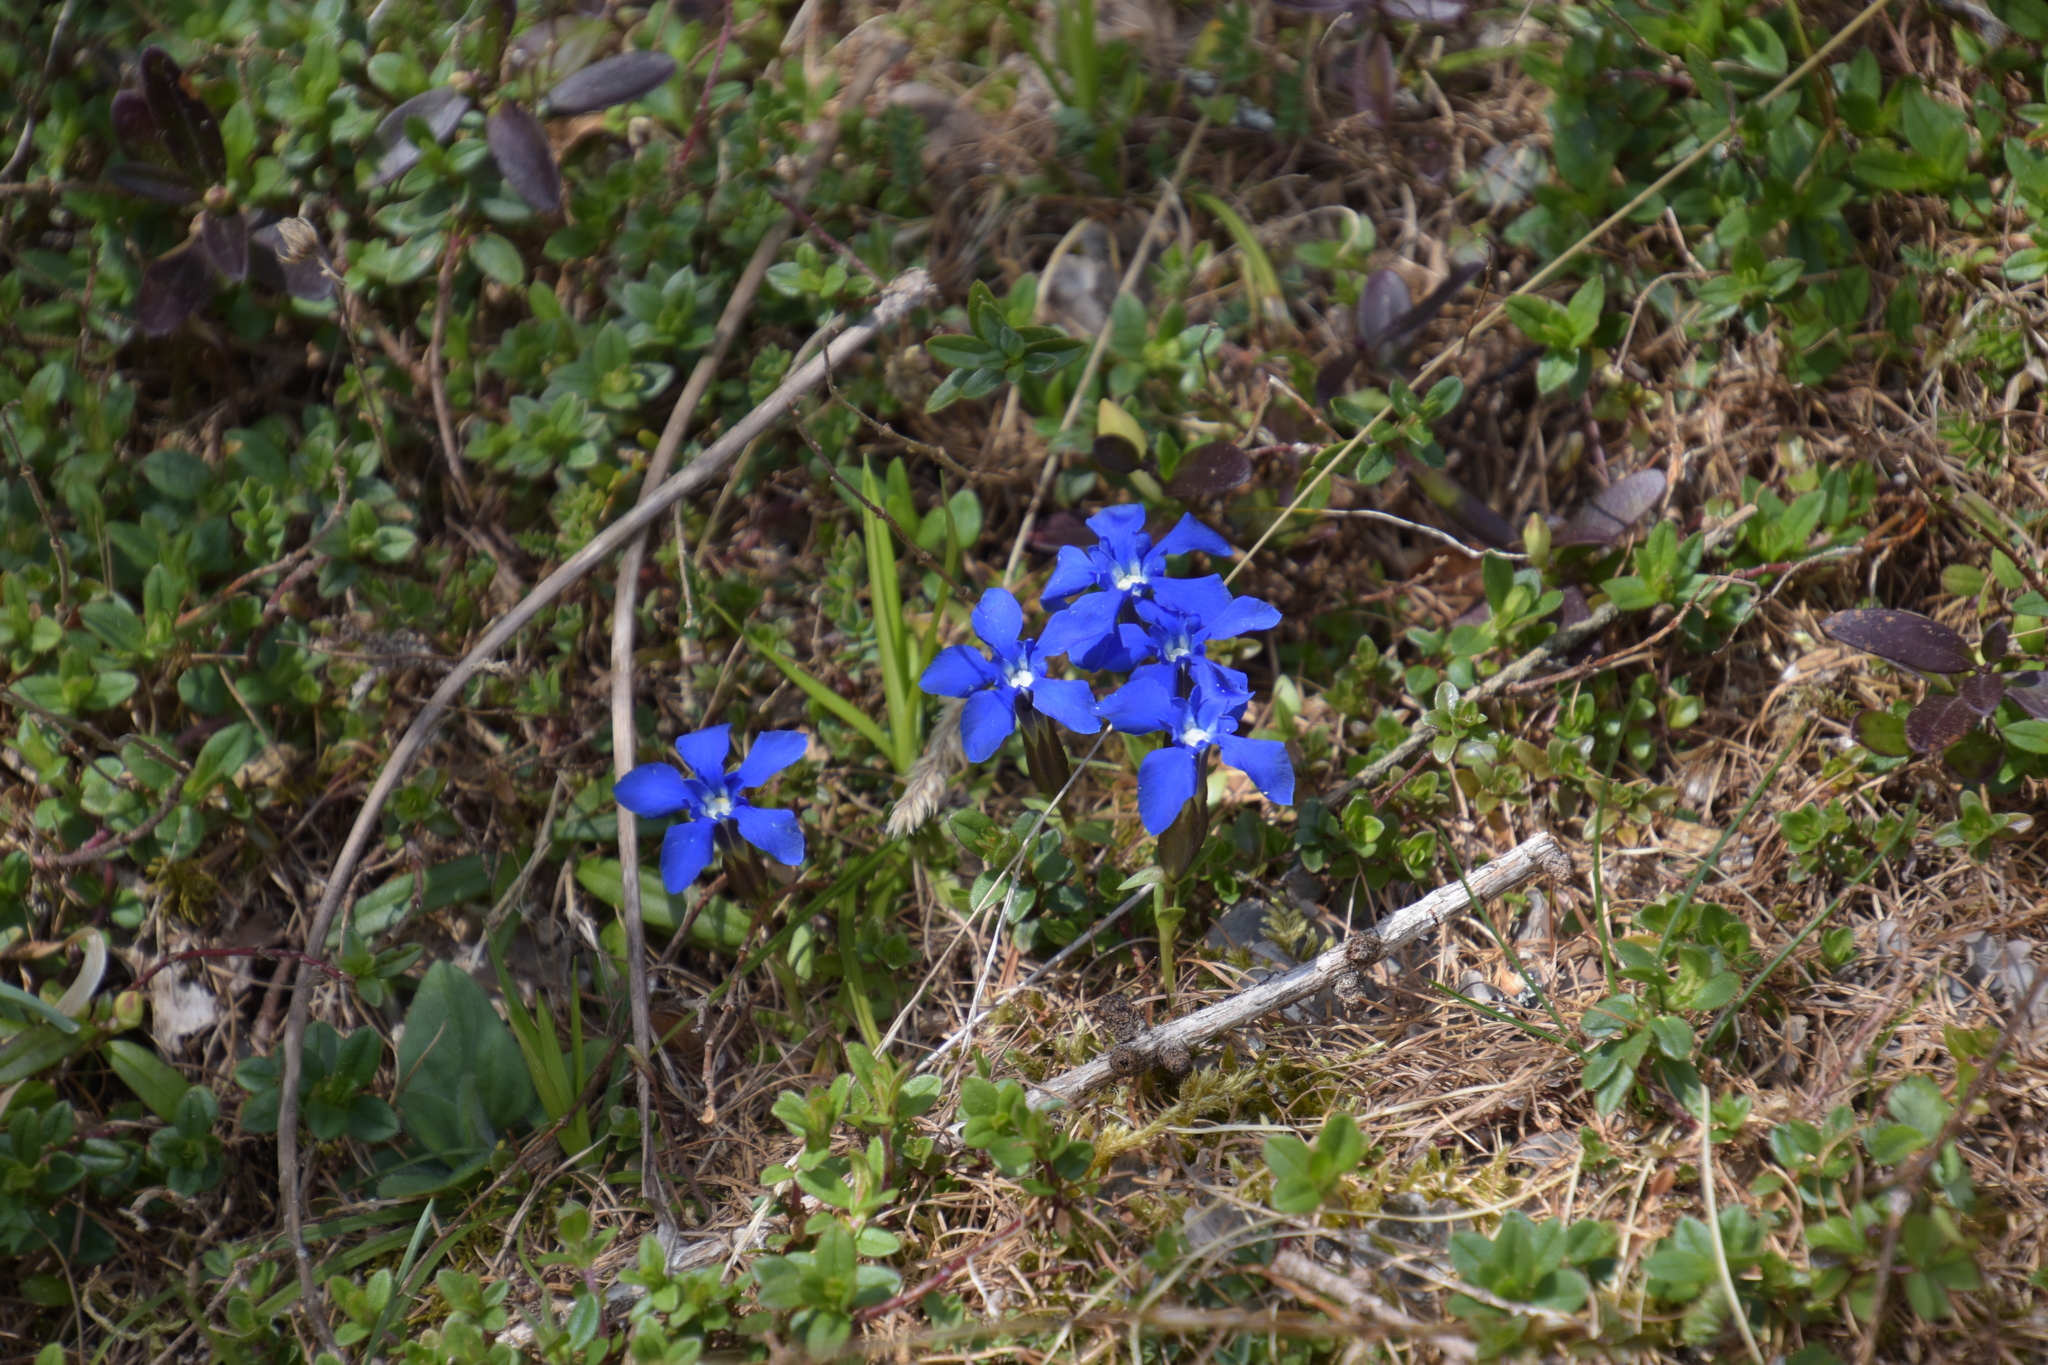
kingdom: Plantae
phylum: Tracheophyta
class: Magnoliopsida
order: Gentianales
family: Gentianaceae
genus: Gentiana
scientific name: Gentiana verna
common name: Spring gentian
